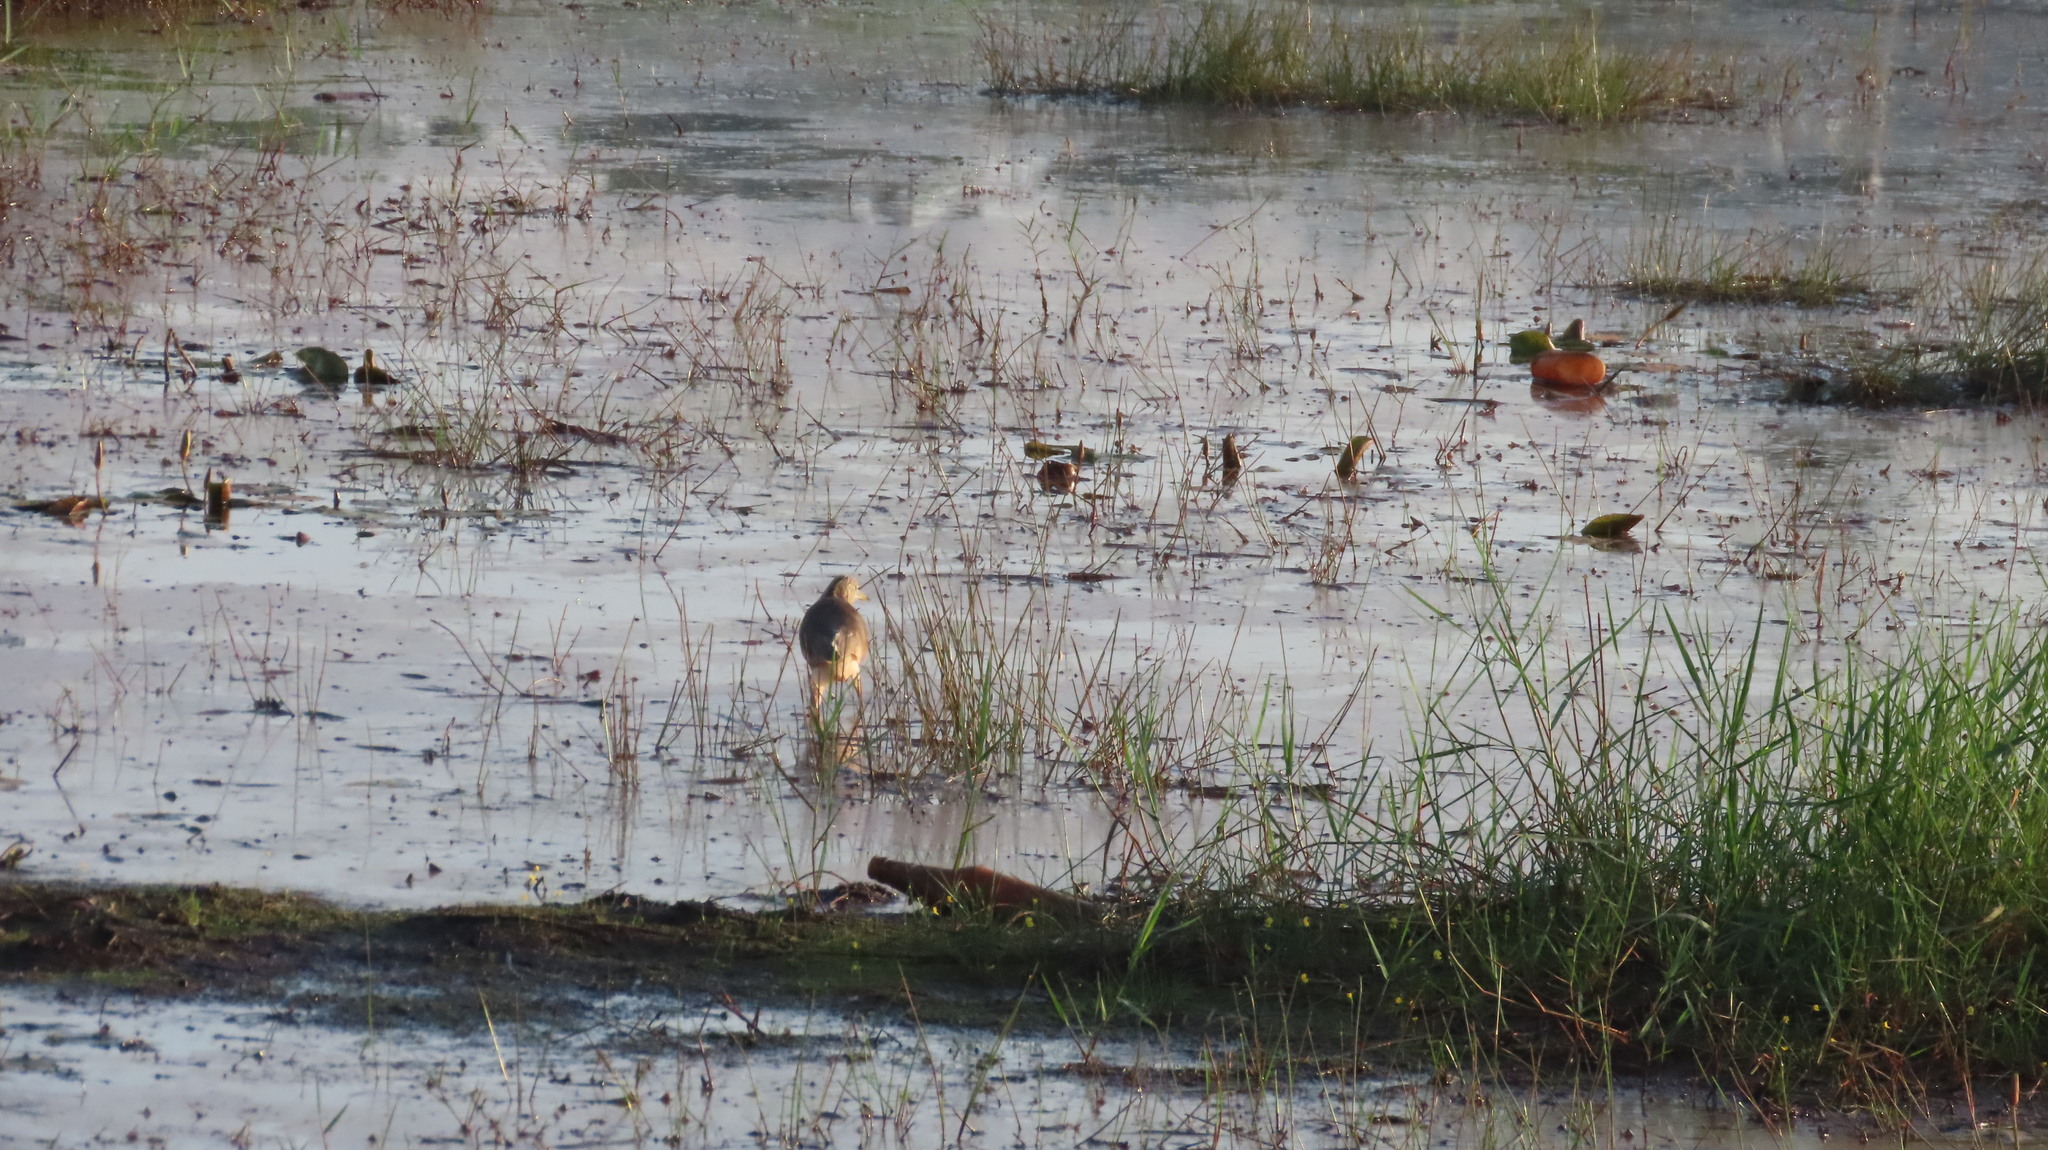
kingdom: Animalia
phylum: Chordata
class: Aves
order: Pelecaniformes
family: Ardeidae
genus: Ardeola
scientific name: Ardeola grayii
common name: Indian pond heron
